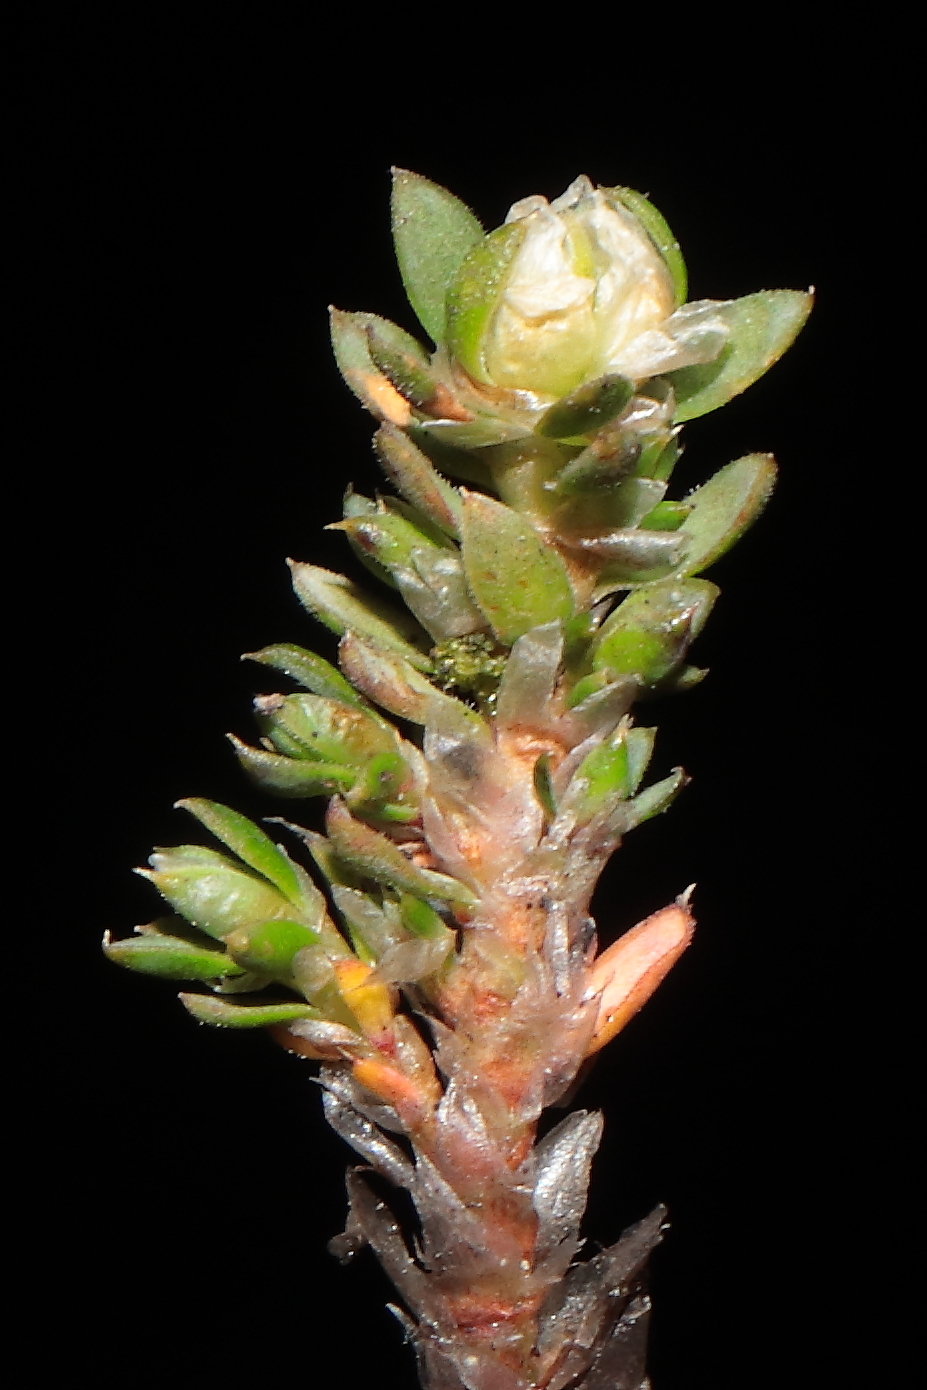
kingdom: Plantae
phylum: Tracheophyta
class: Magnoliopsida
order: Caryophyllales
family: Caryophyllaceae
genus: Paronychia
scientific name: Paronychia andina
